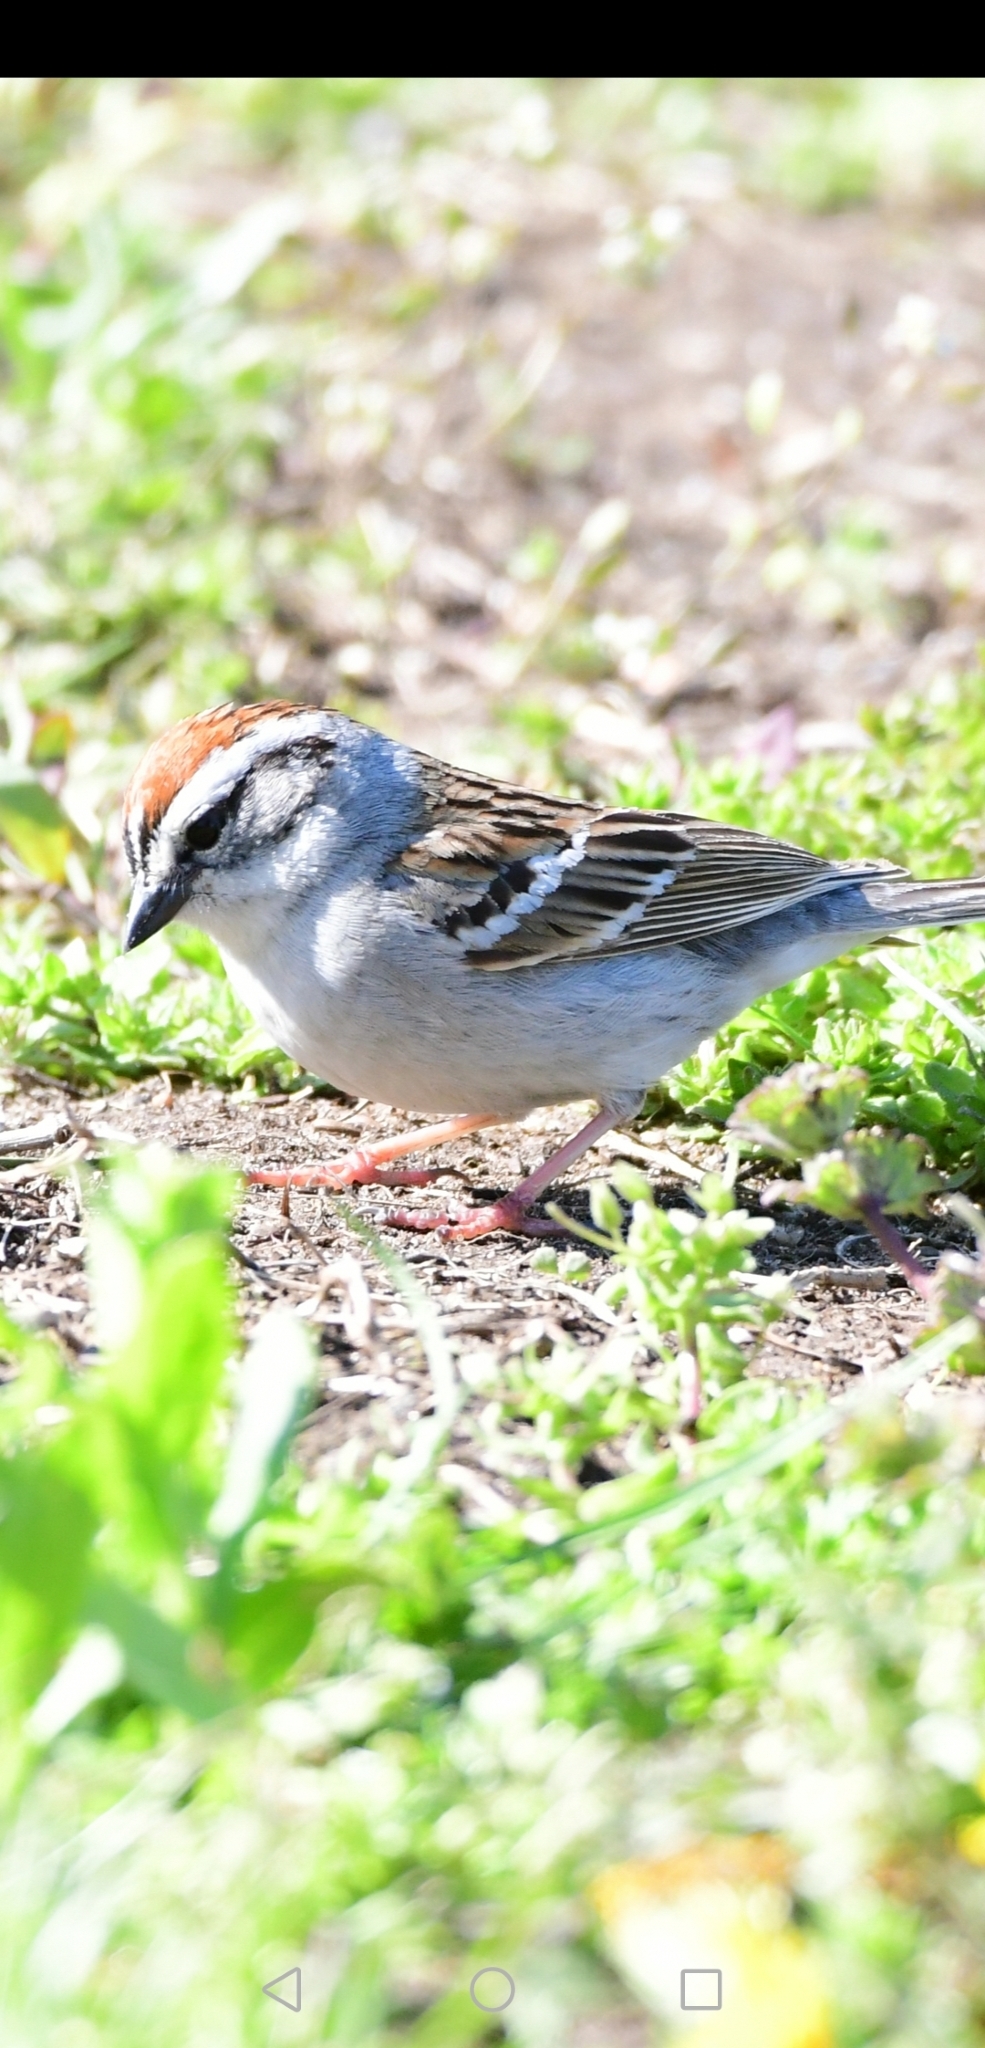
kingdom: Animalia
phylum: Chordata
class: Aves
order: Passeriformes
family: Passerellidae
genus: Spizella
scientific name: Spizella passerina
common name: Chipping sparrow
